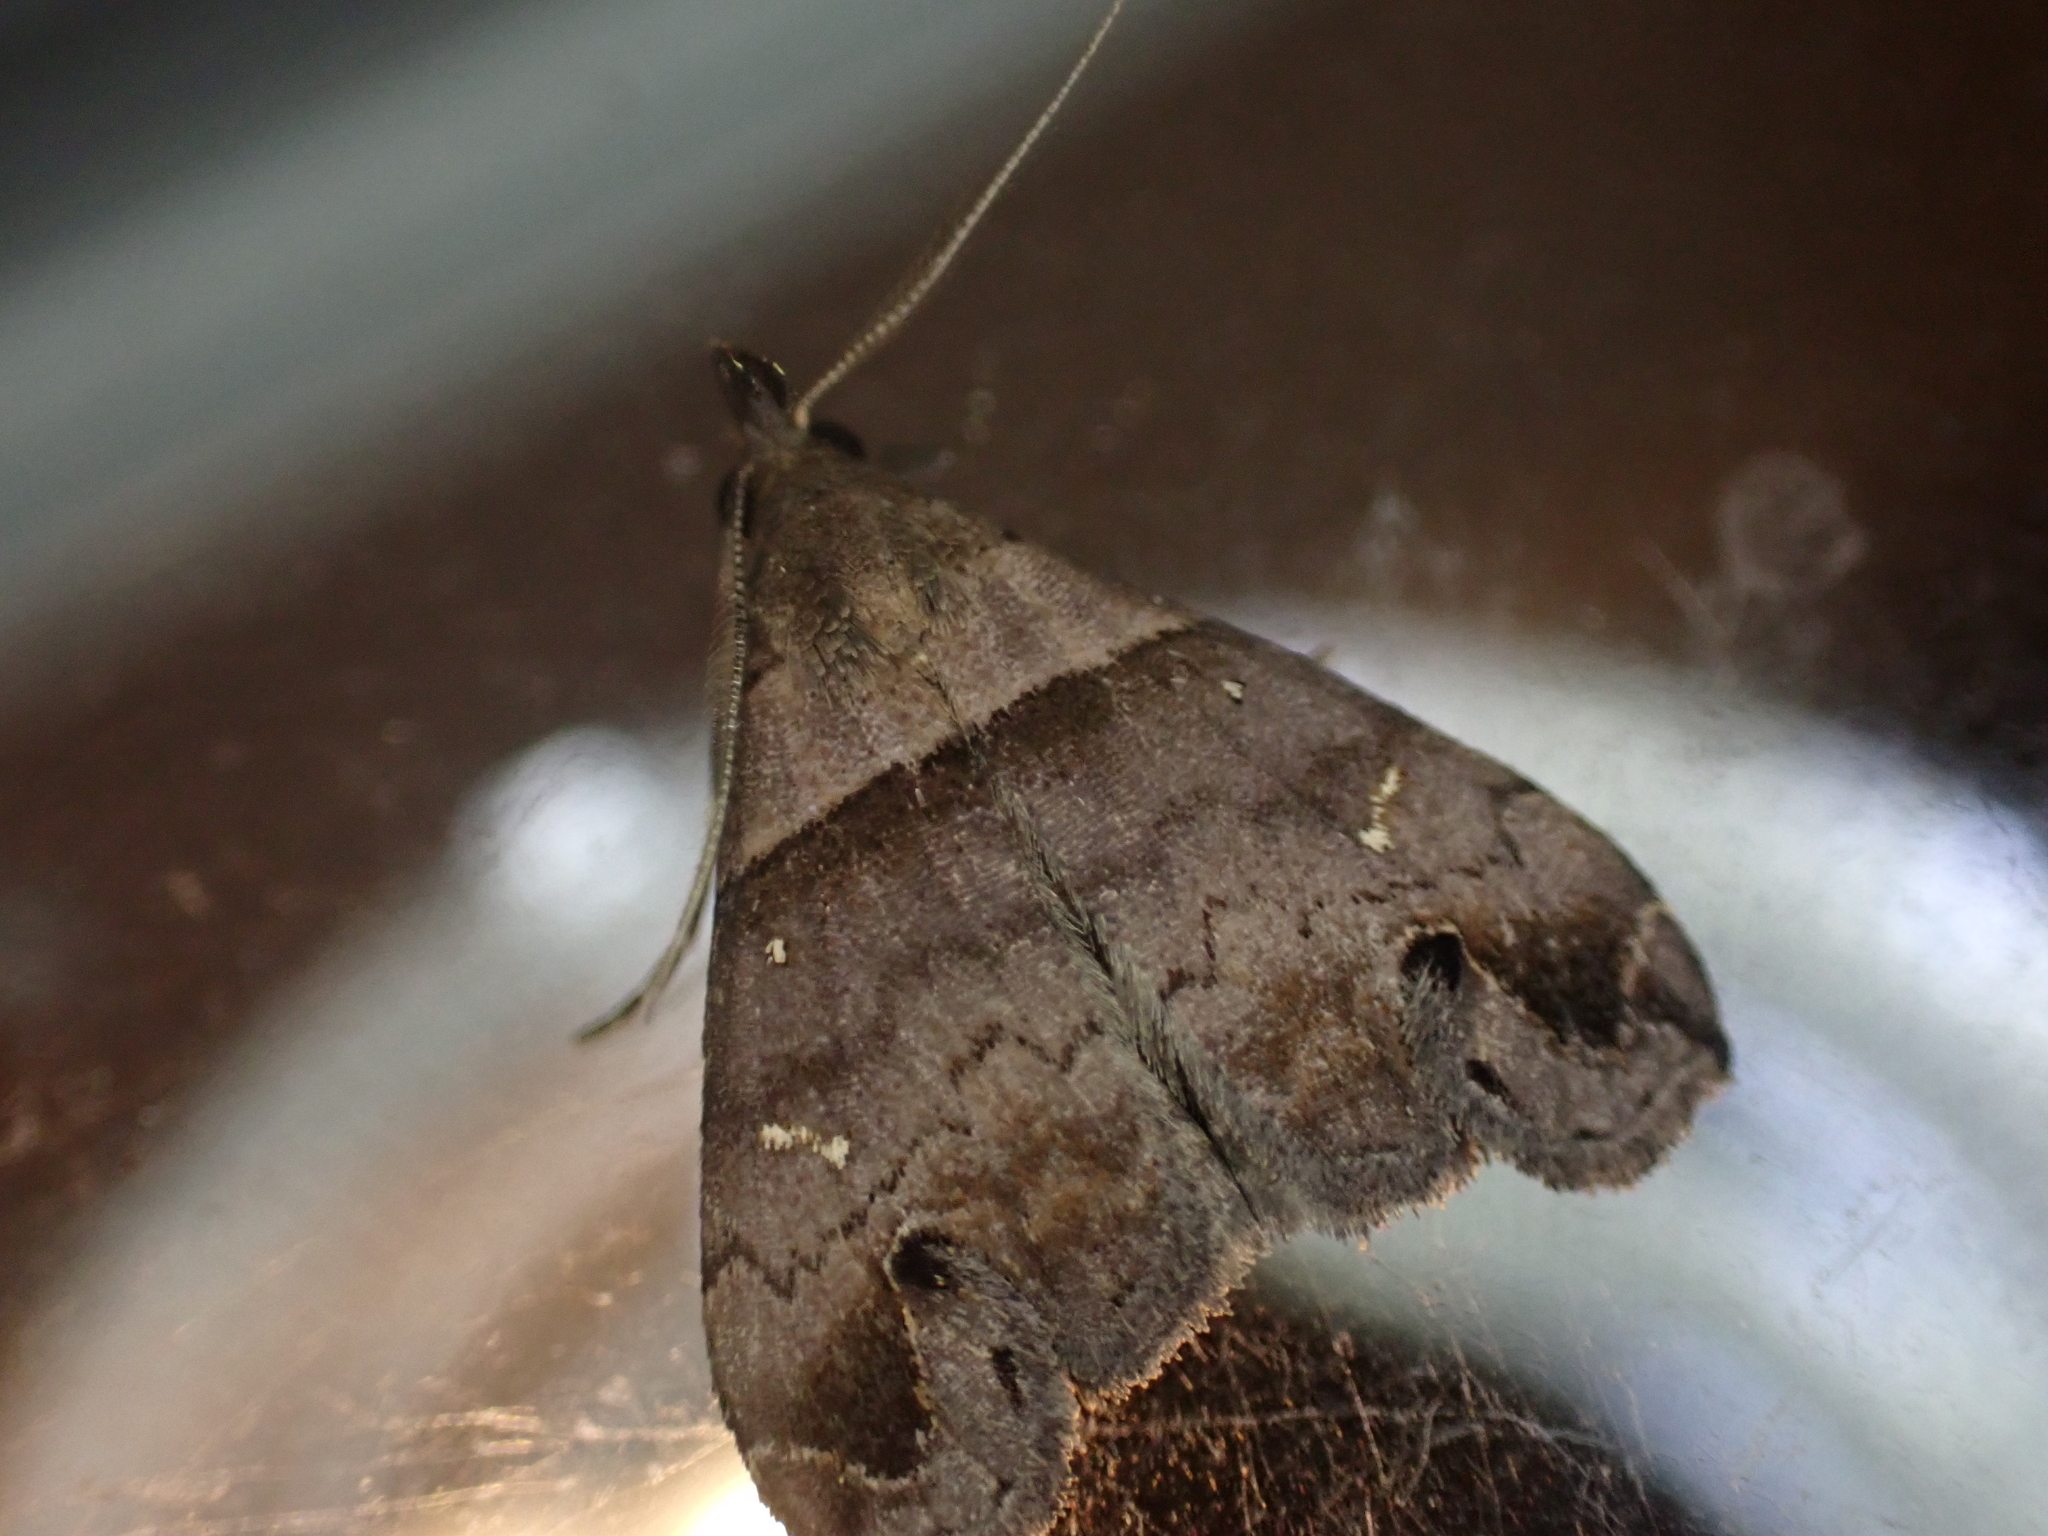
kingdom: Animalia
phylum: Arthropoda
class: Insecta
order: Lepidoptera
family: Erebidae
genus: Lascoria
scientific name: Lascoria ambigualis
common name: Ambiguous moth
